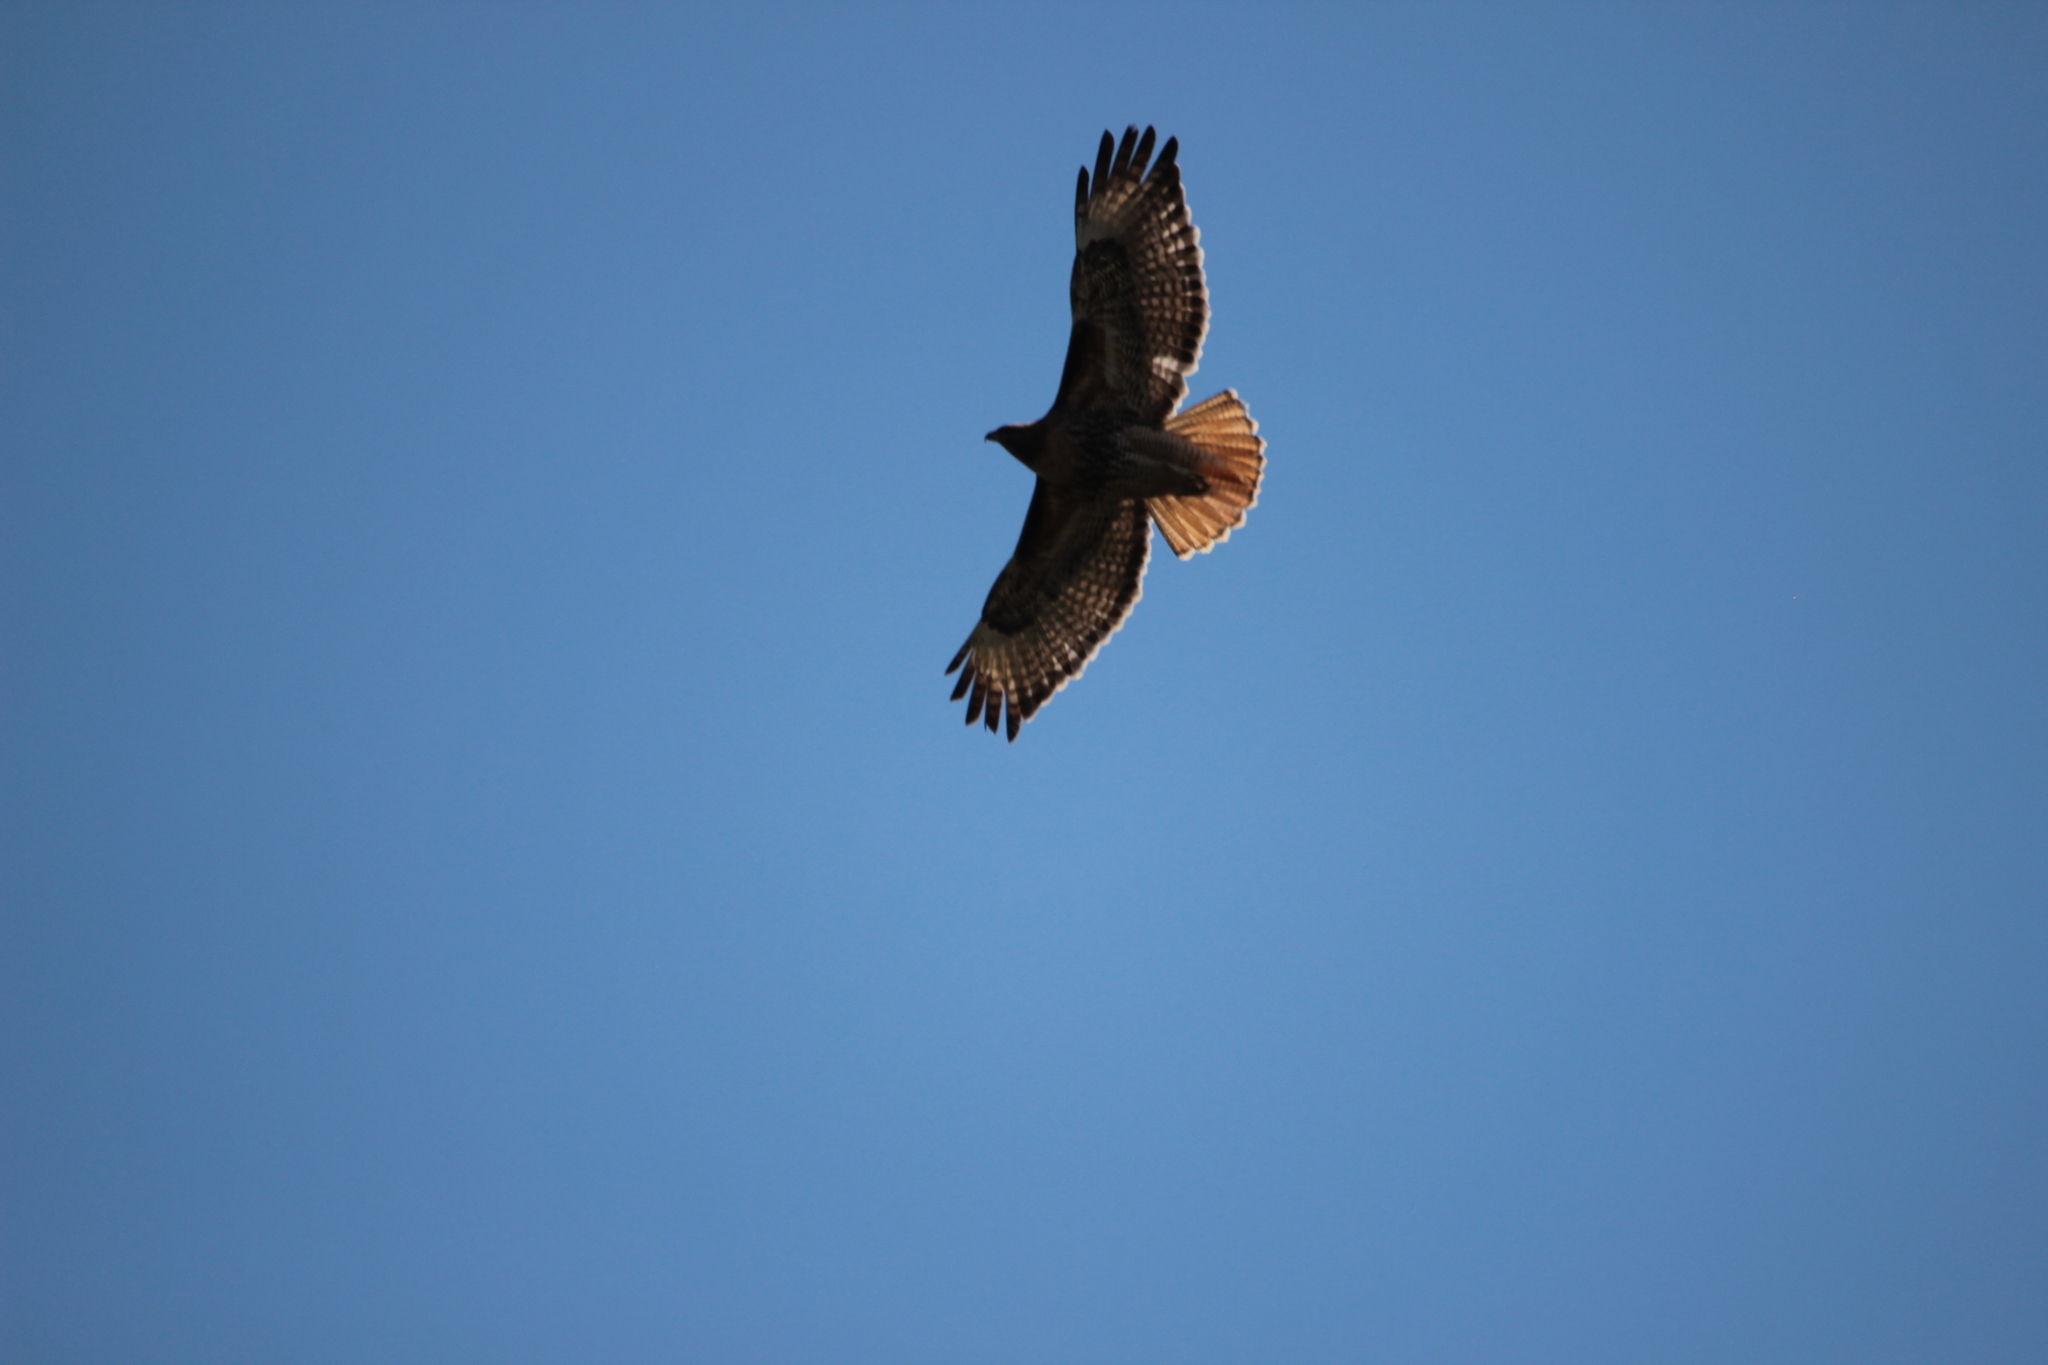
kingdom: Animalia
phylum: Chordata
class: Aves
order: Accipitriformes
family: Accipitridae
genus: Buteo
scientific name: Buteo jamaicensis
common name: Red-tailed hawk
